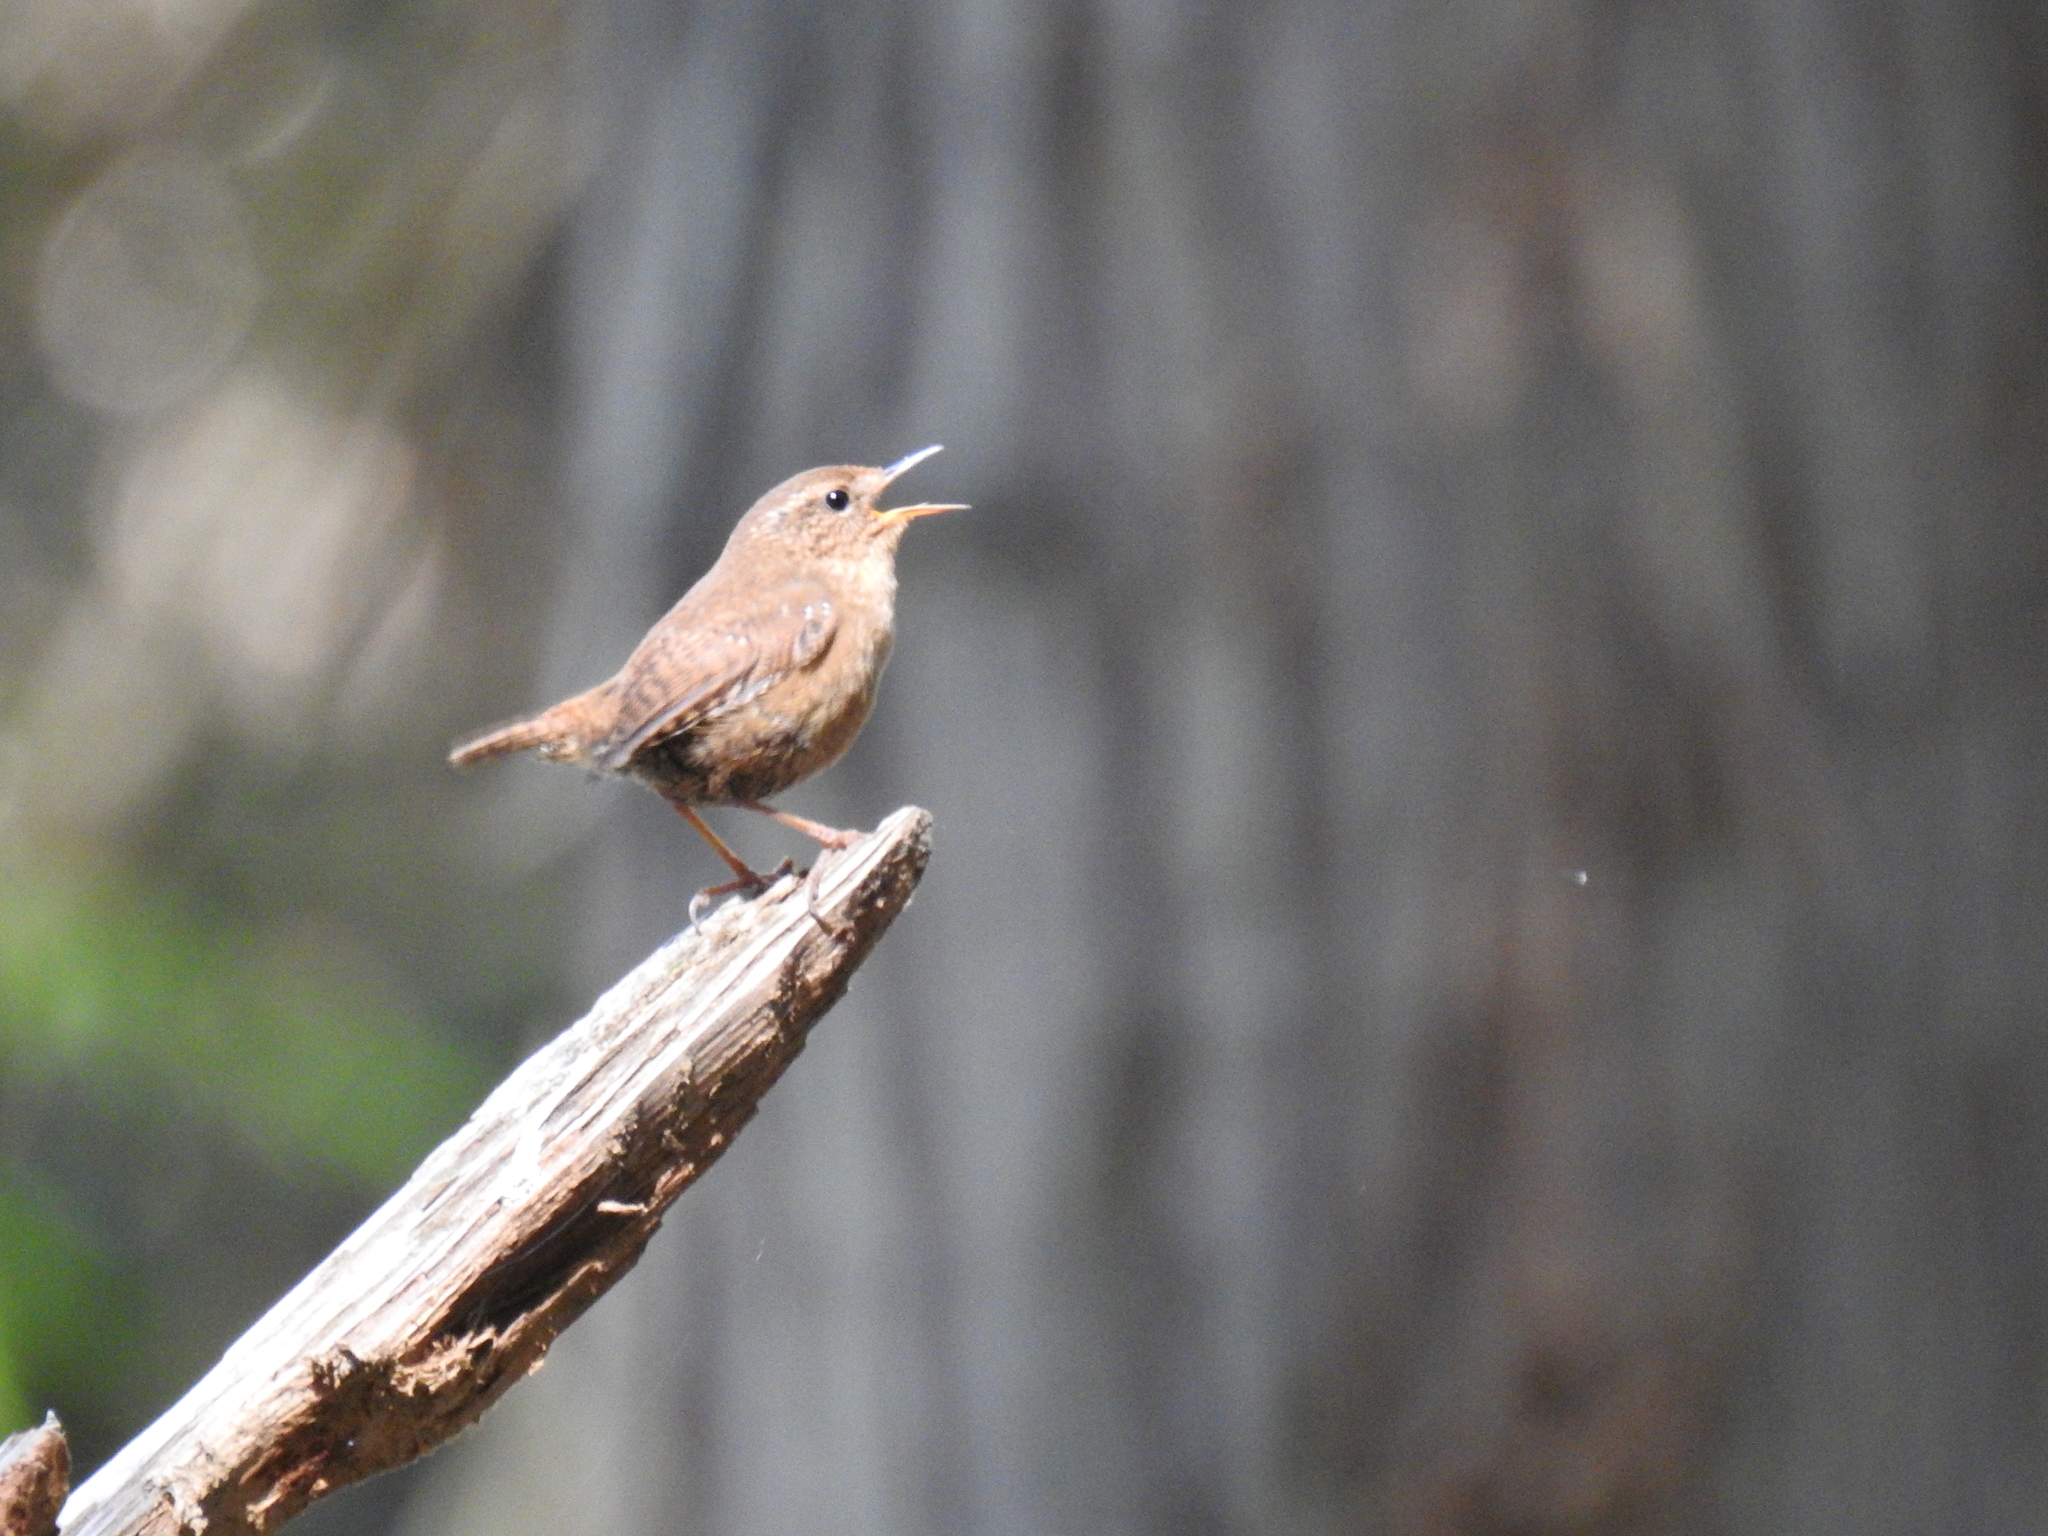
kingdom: Animalia
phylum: Chordata
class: Aves
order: Passeriformes
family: Troglodytidae
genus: Troglodytes
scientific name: Troglodytes pacificus
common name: Pacific wren
